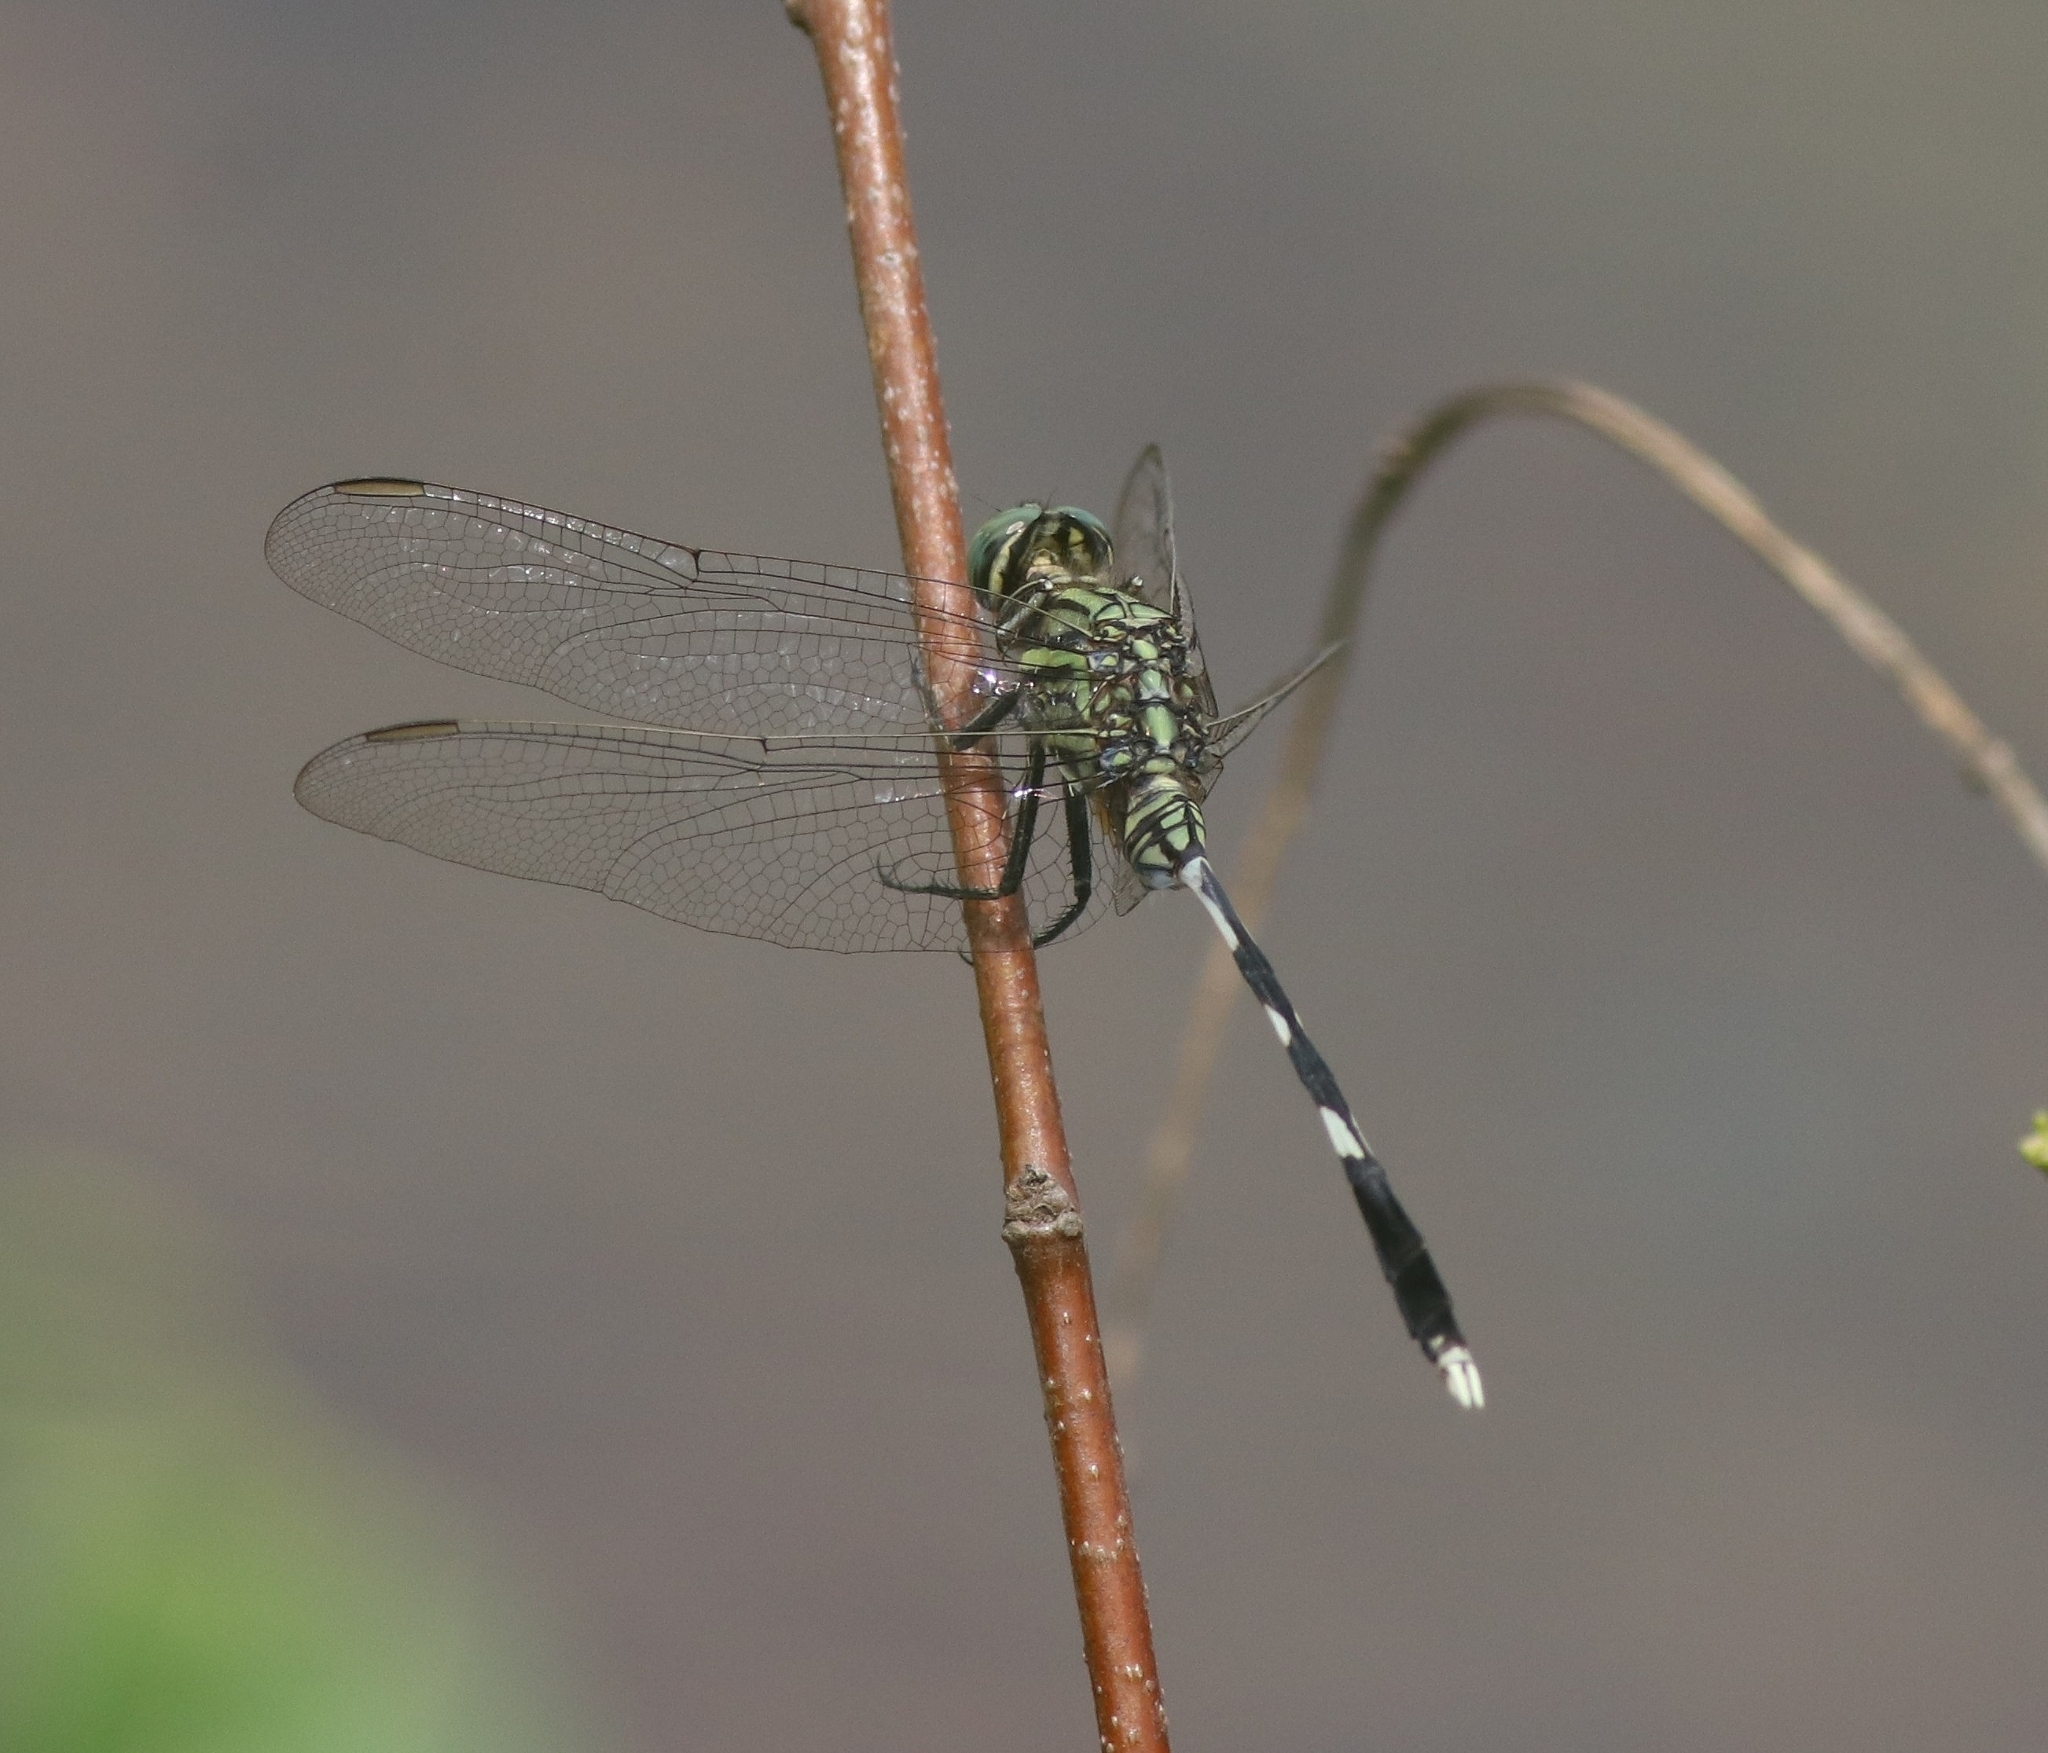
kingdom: Animalia
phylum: Arthropoda
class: Insecta
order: Odonata
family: Libellulidae
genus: Orthetrum
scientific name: Orthetrum sabina
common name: Slender skimmer
